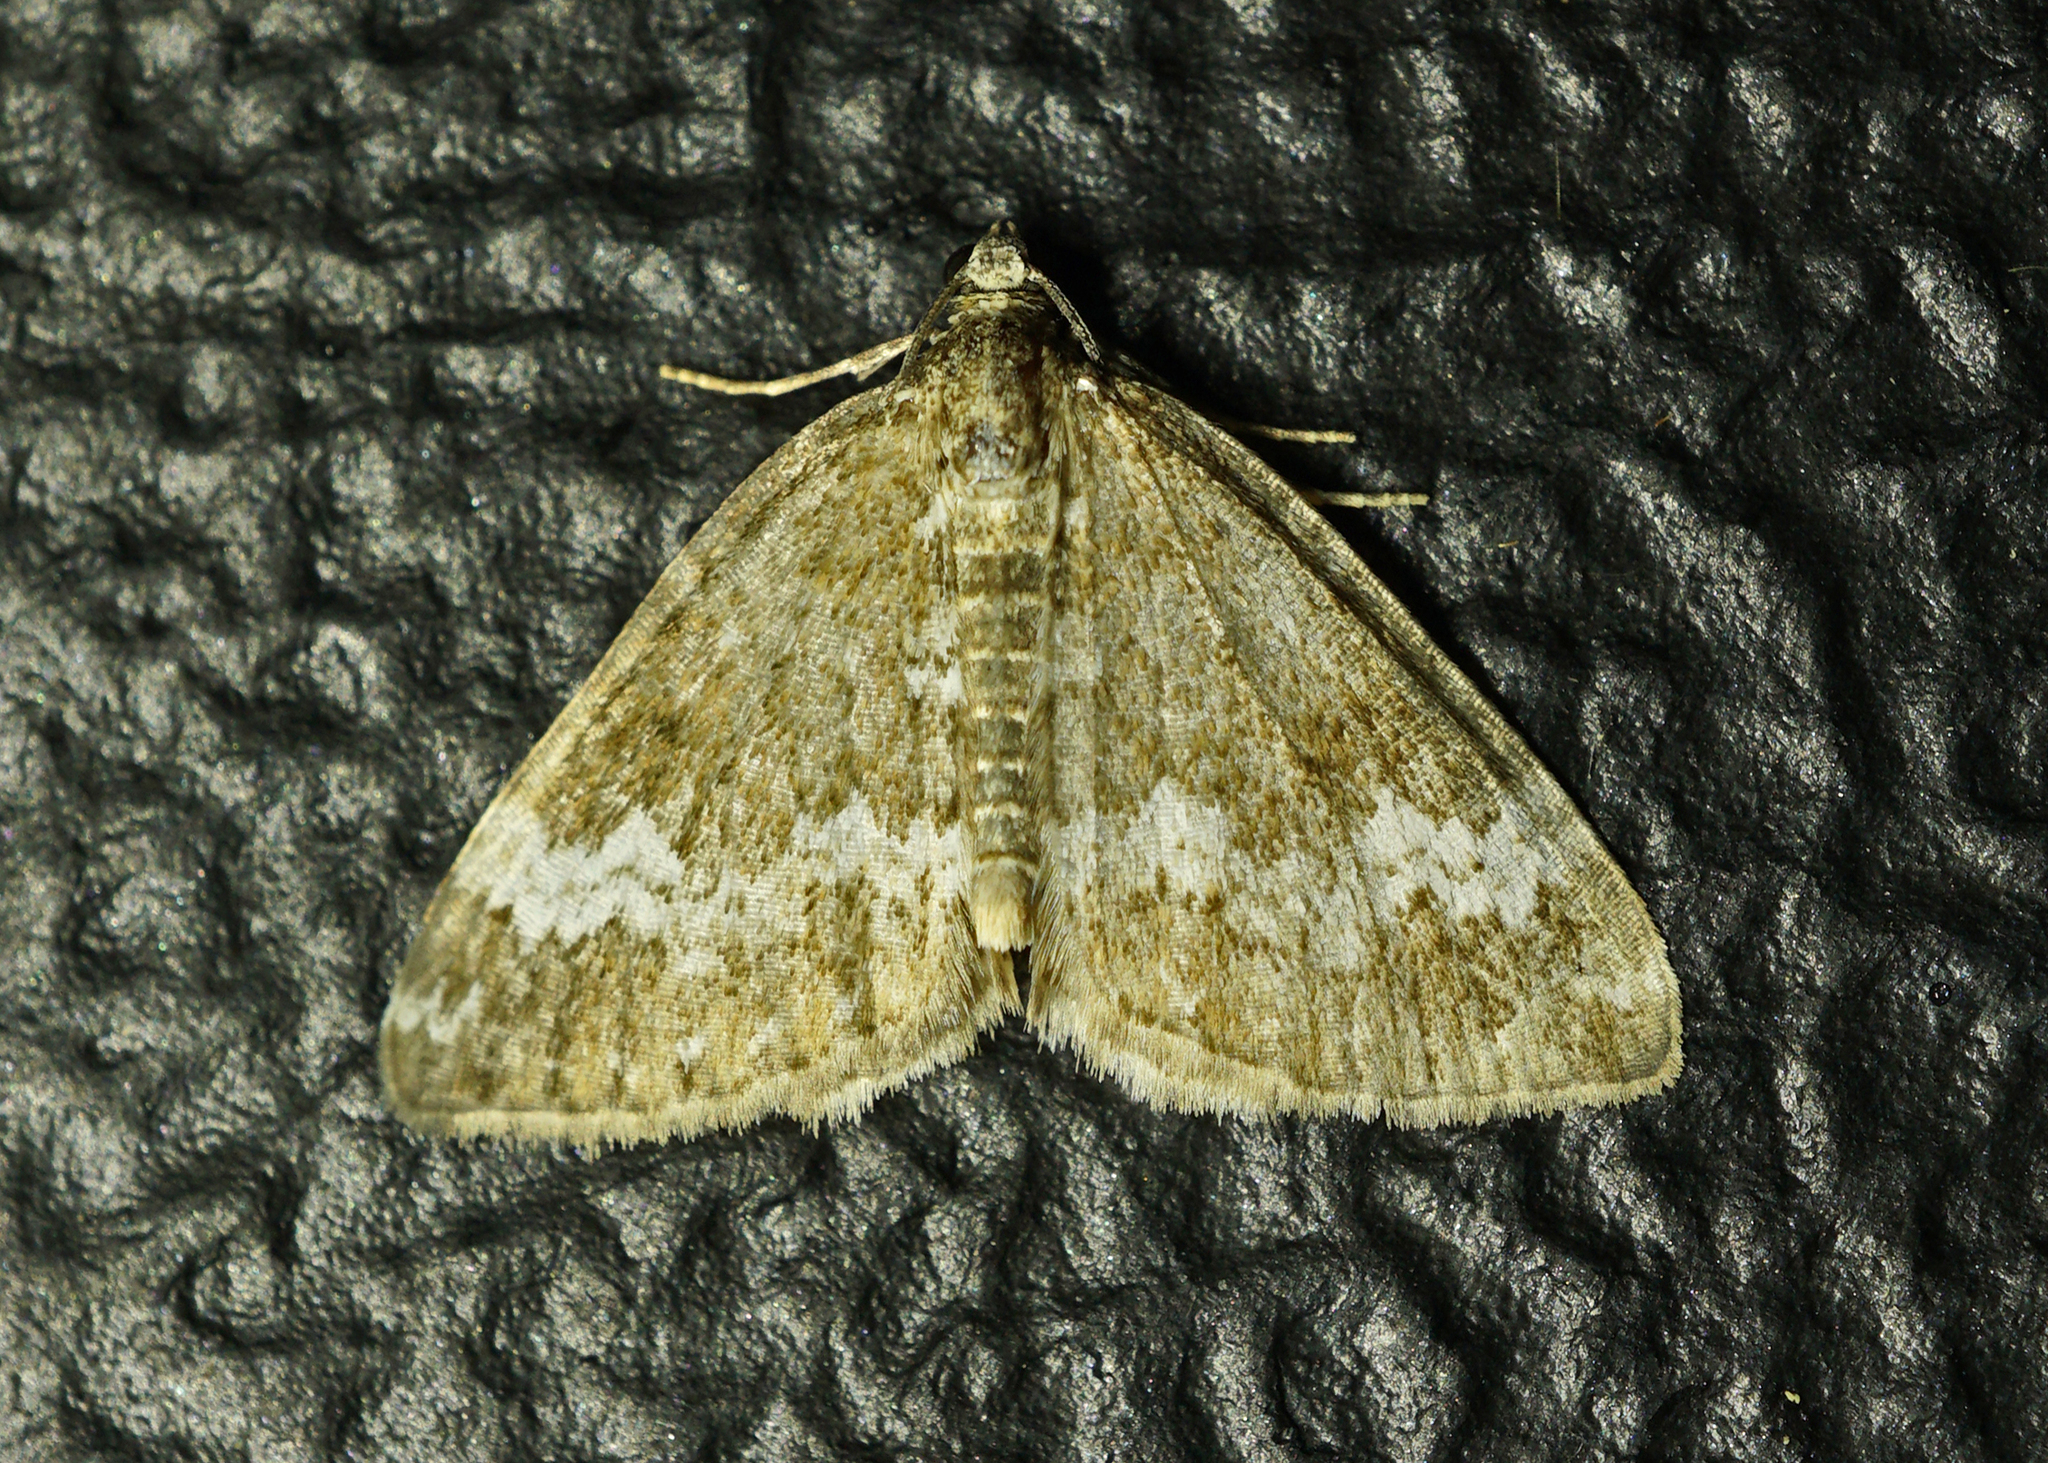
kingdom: Animalia
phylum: Arthropoda
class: Insecta
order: Lepidoptera
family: Geometridae
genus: Perizoma
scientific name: Perizoma alchemillata
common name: Small rivulet
